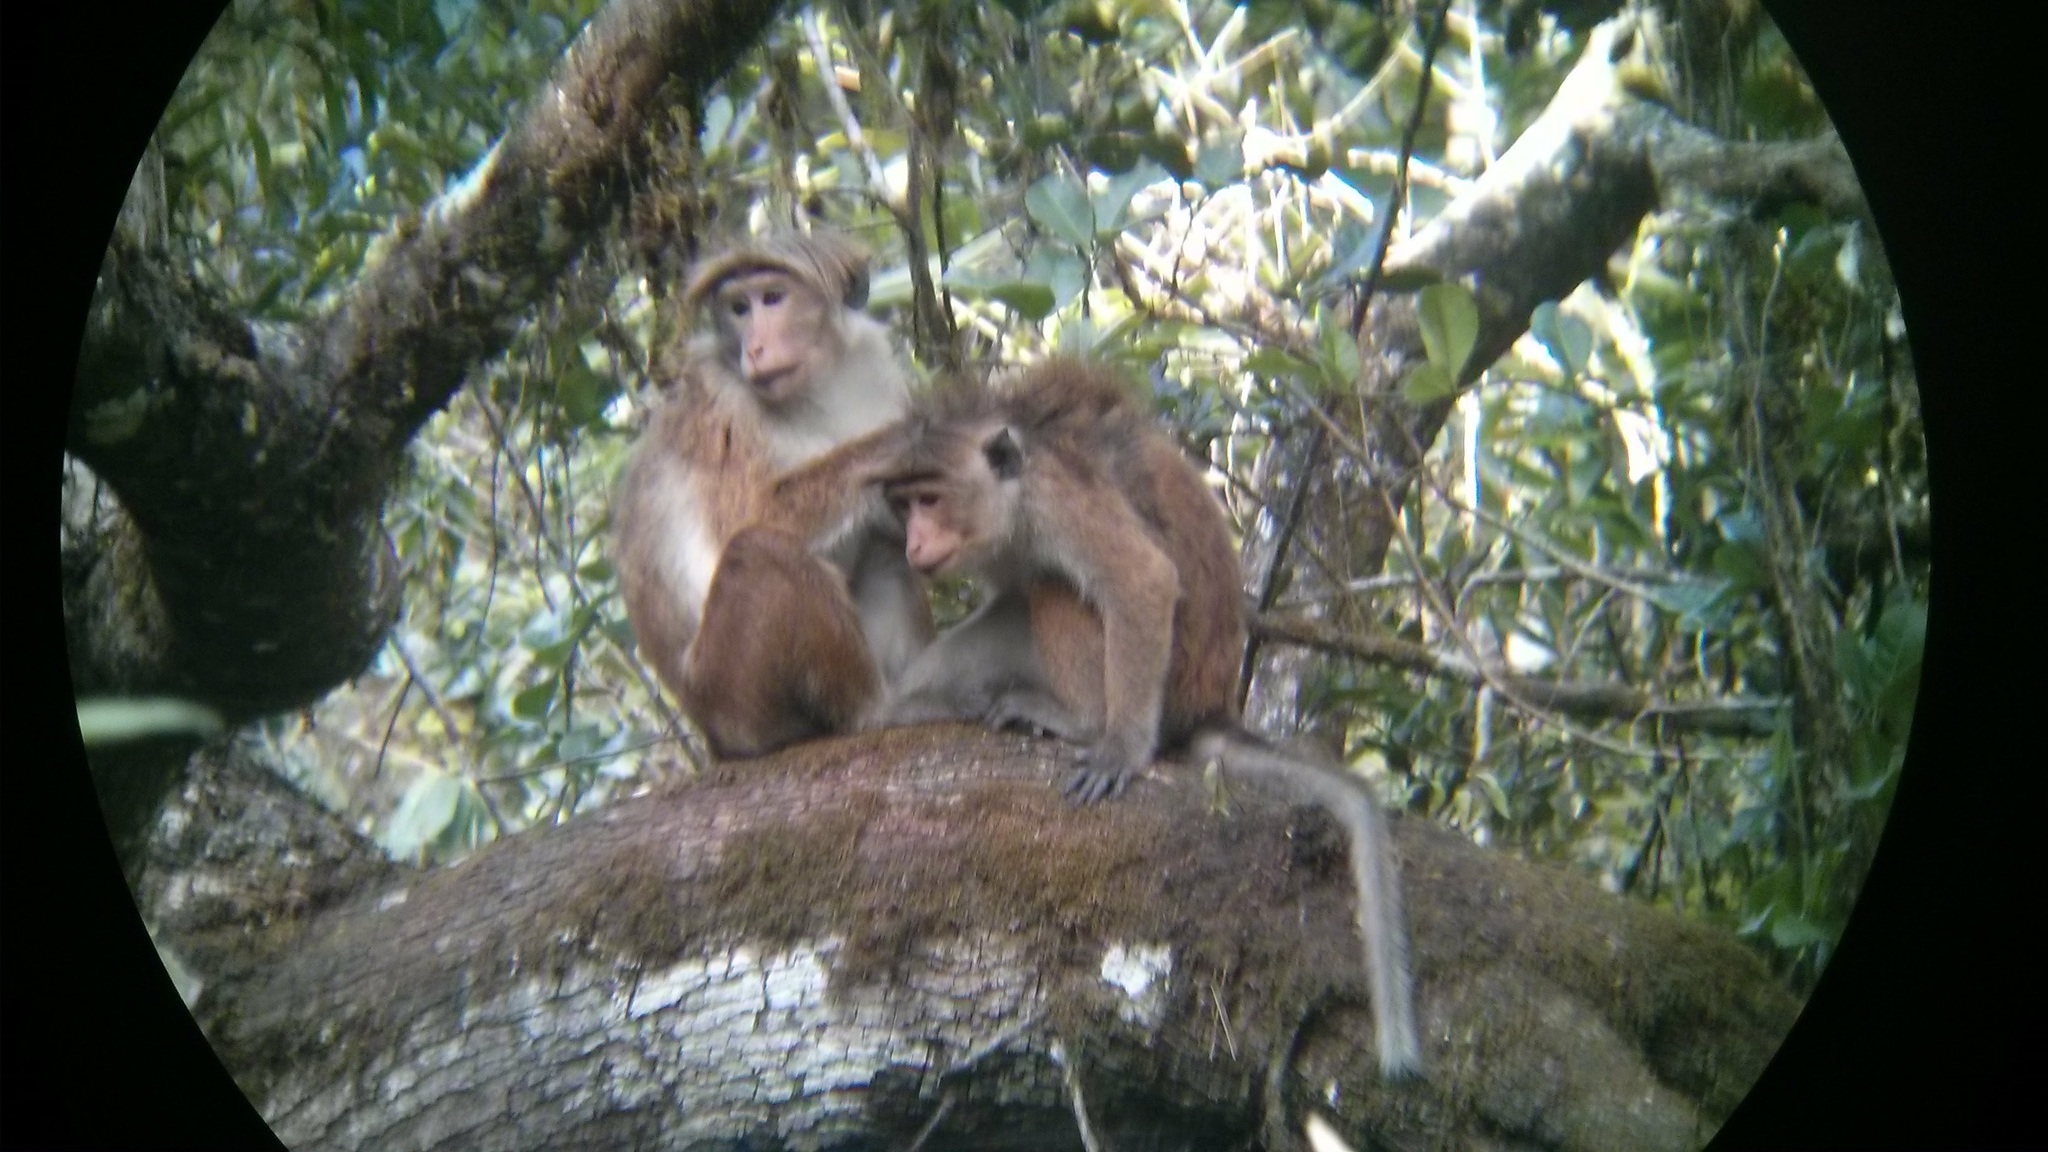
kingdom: Animalia
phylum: Chordata
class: Mammalia
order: Primates
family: Cercopithecidae
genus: Macaca
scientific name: Macaca sinica
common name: Toque macaque
